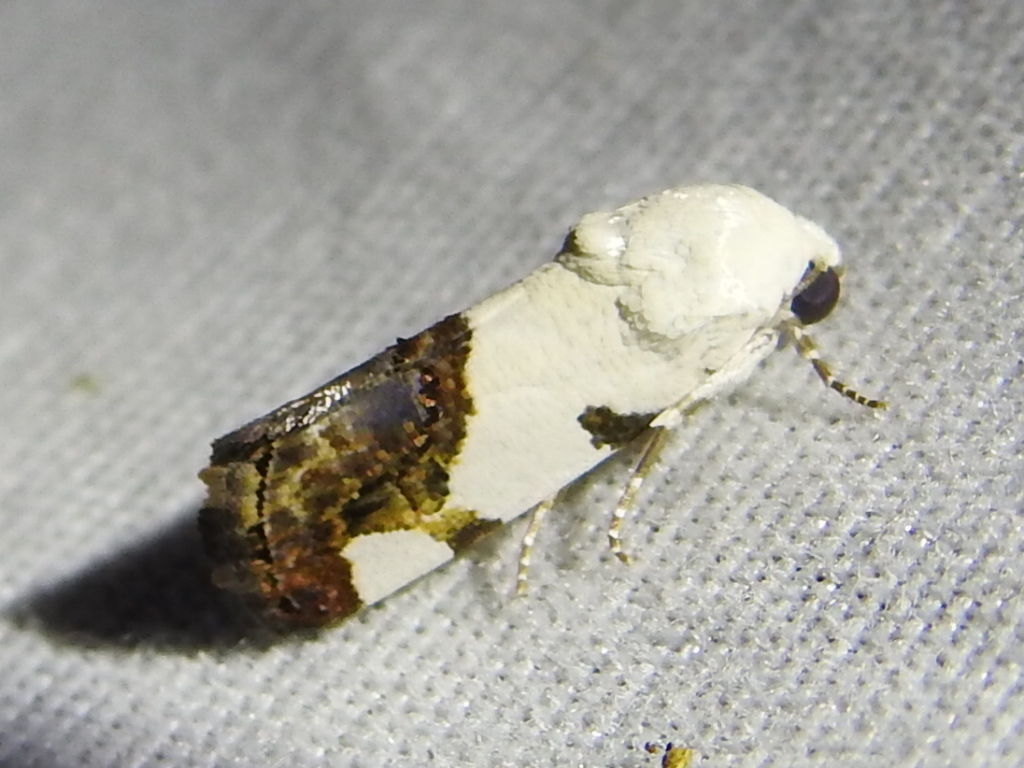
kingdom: Animalia
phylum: Arthropoda
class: Insecta
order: Lepidoptera
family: Noctuidae
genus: Acontia
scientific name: Acontia quadriplaga
